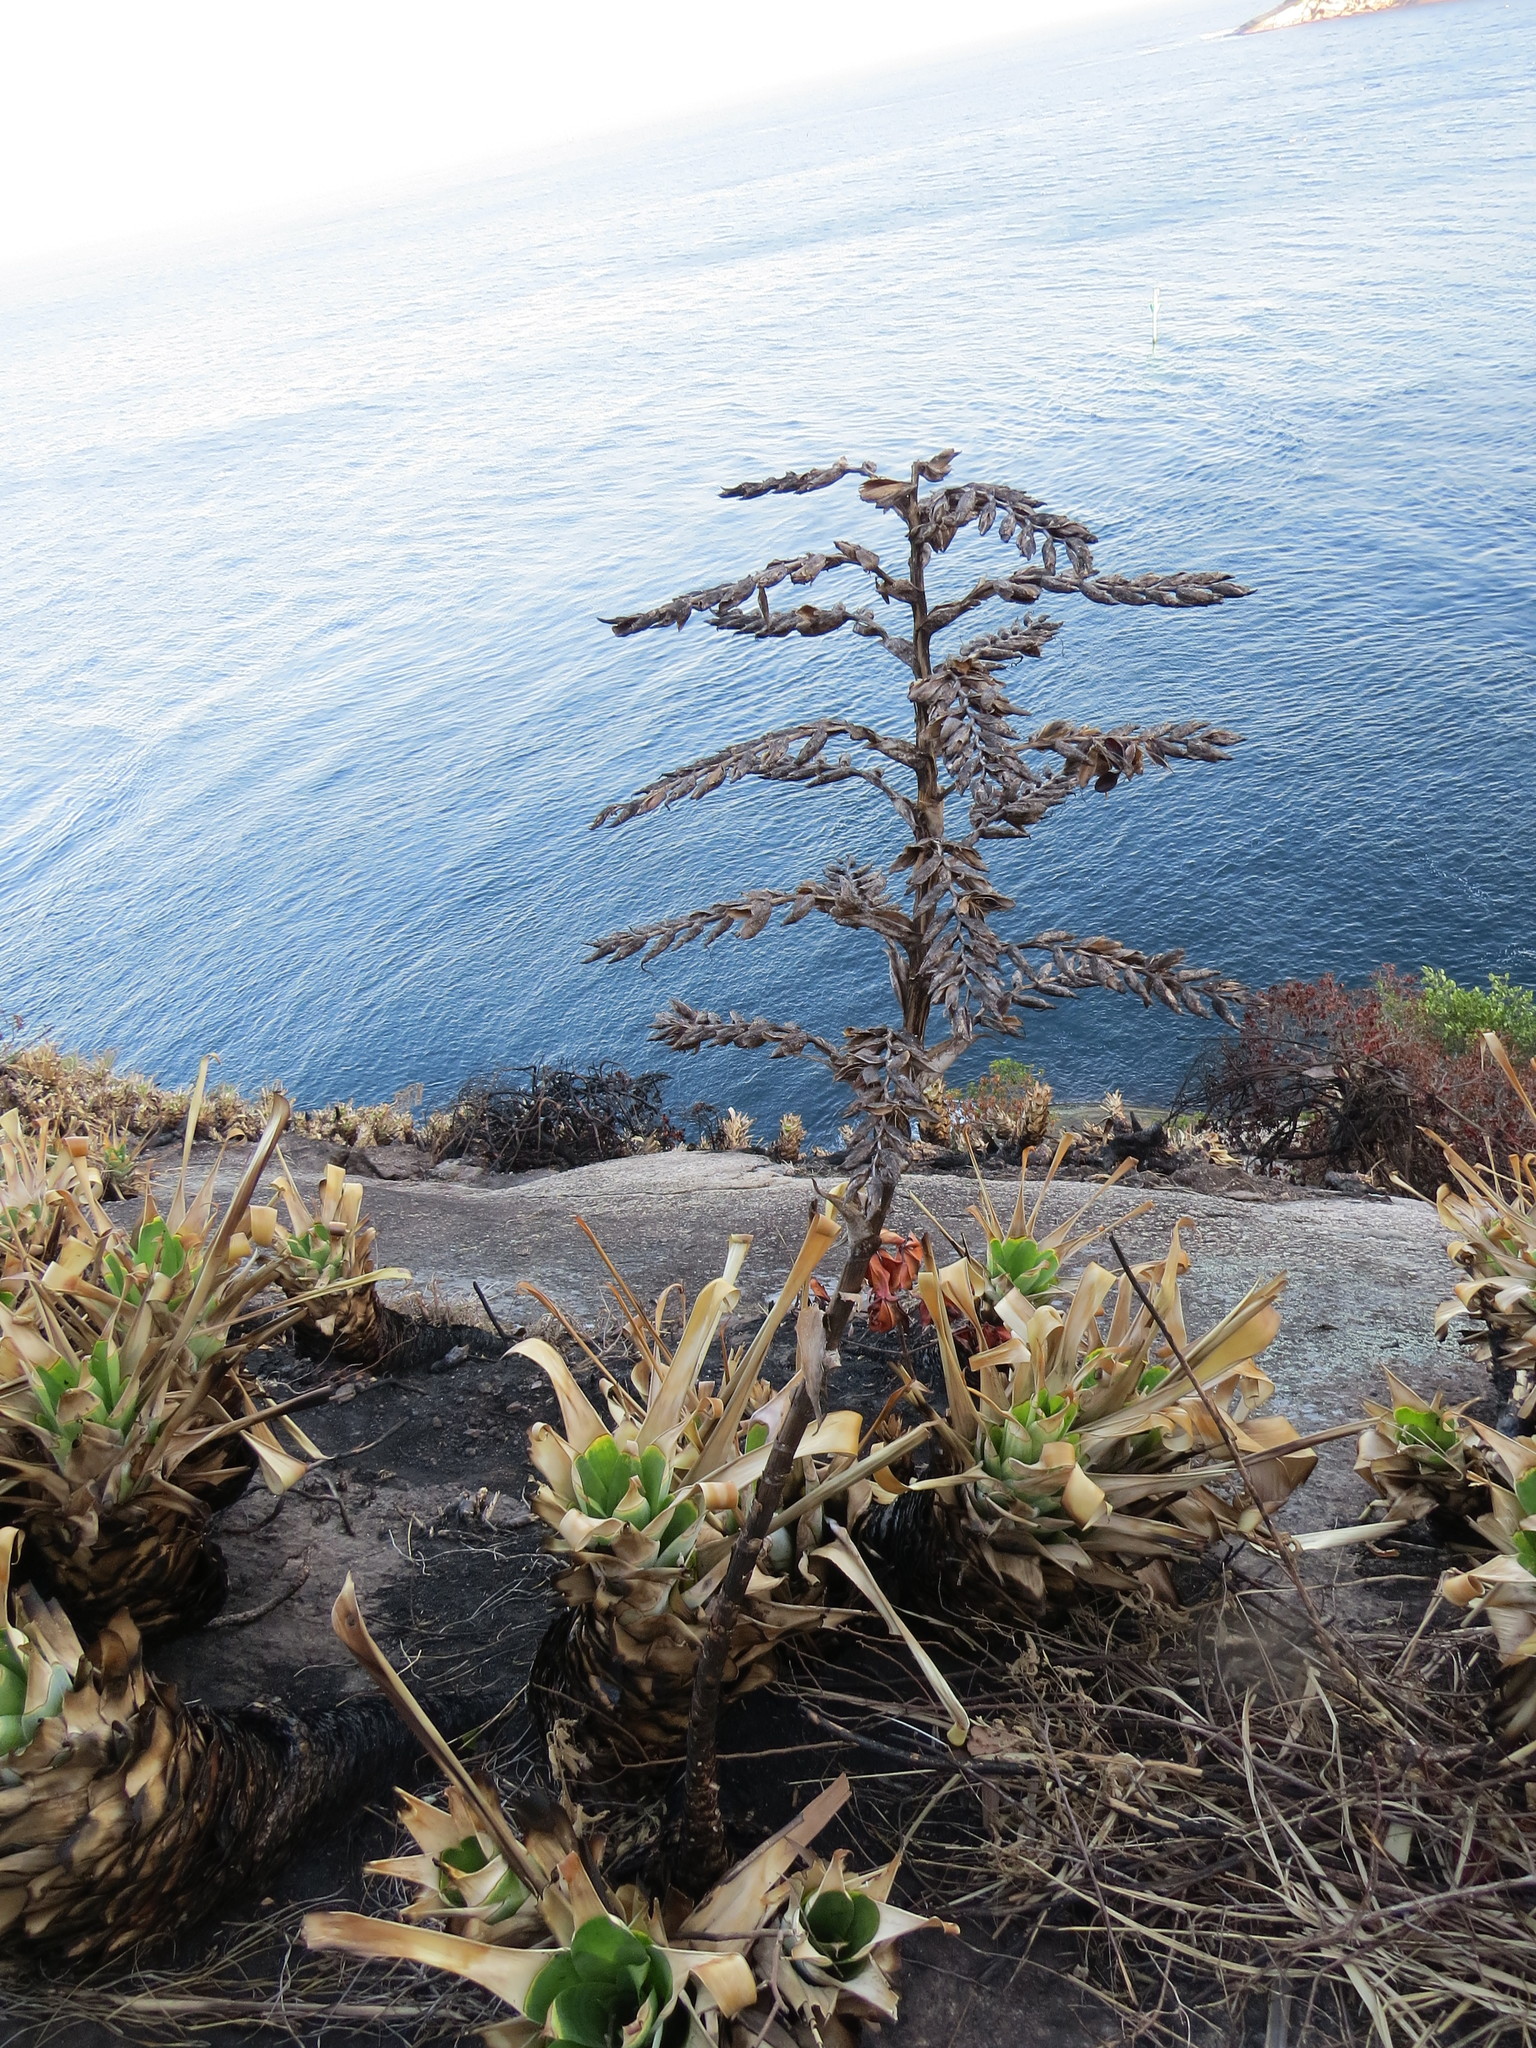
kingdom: Plantae
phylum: Tracheophyta
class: Liliopsida
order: Poales
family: Bromeliaceae
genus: Alcantarea
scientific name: Alcantarea glaziouana
